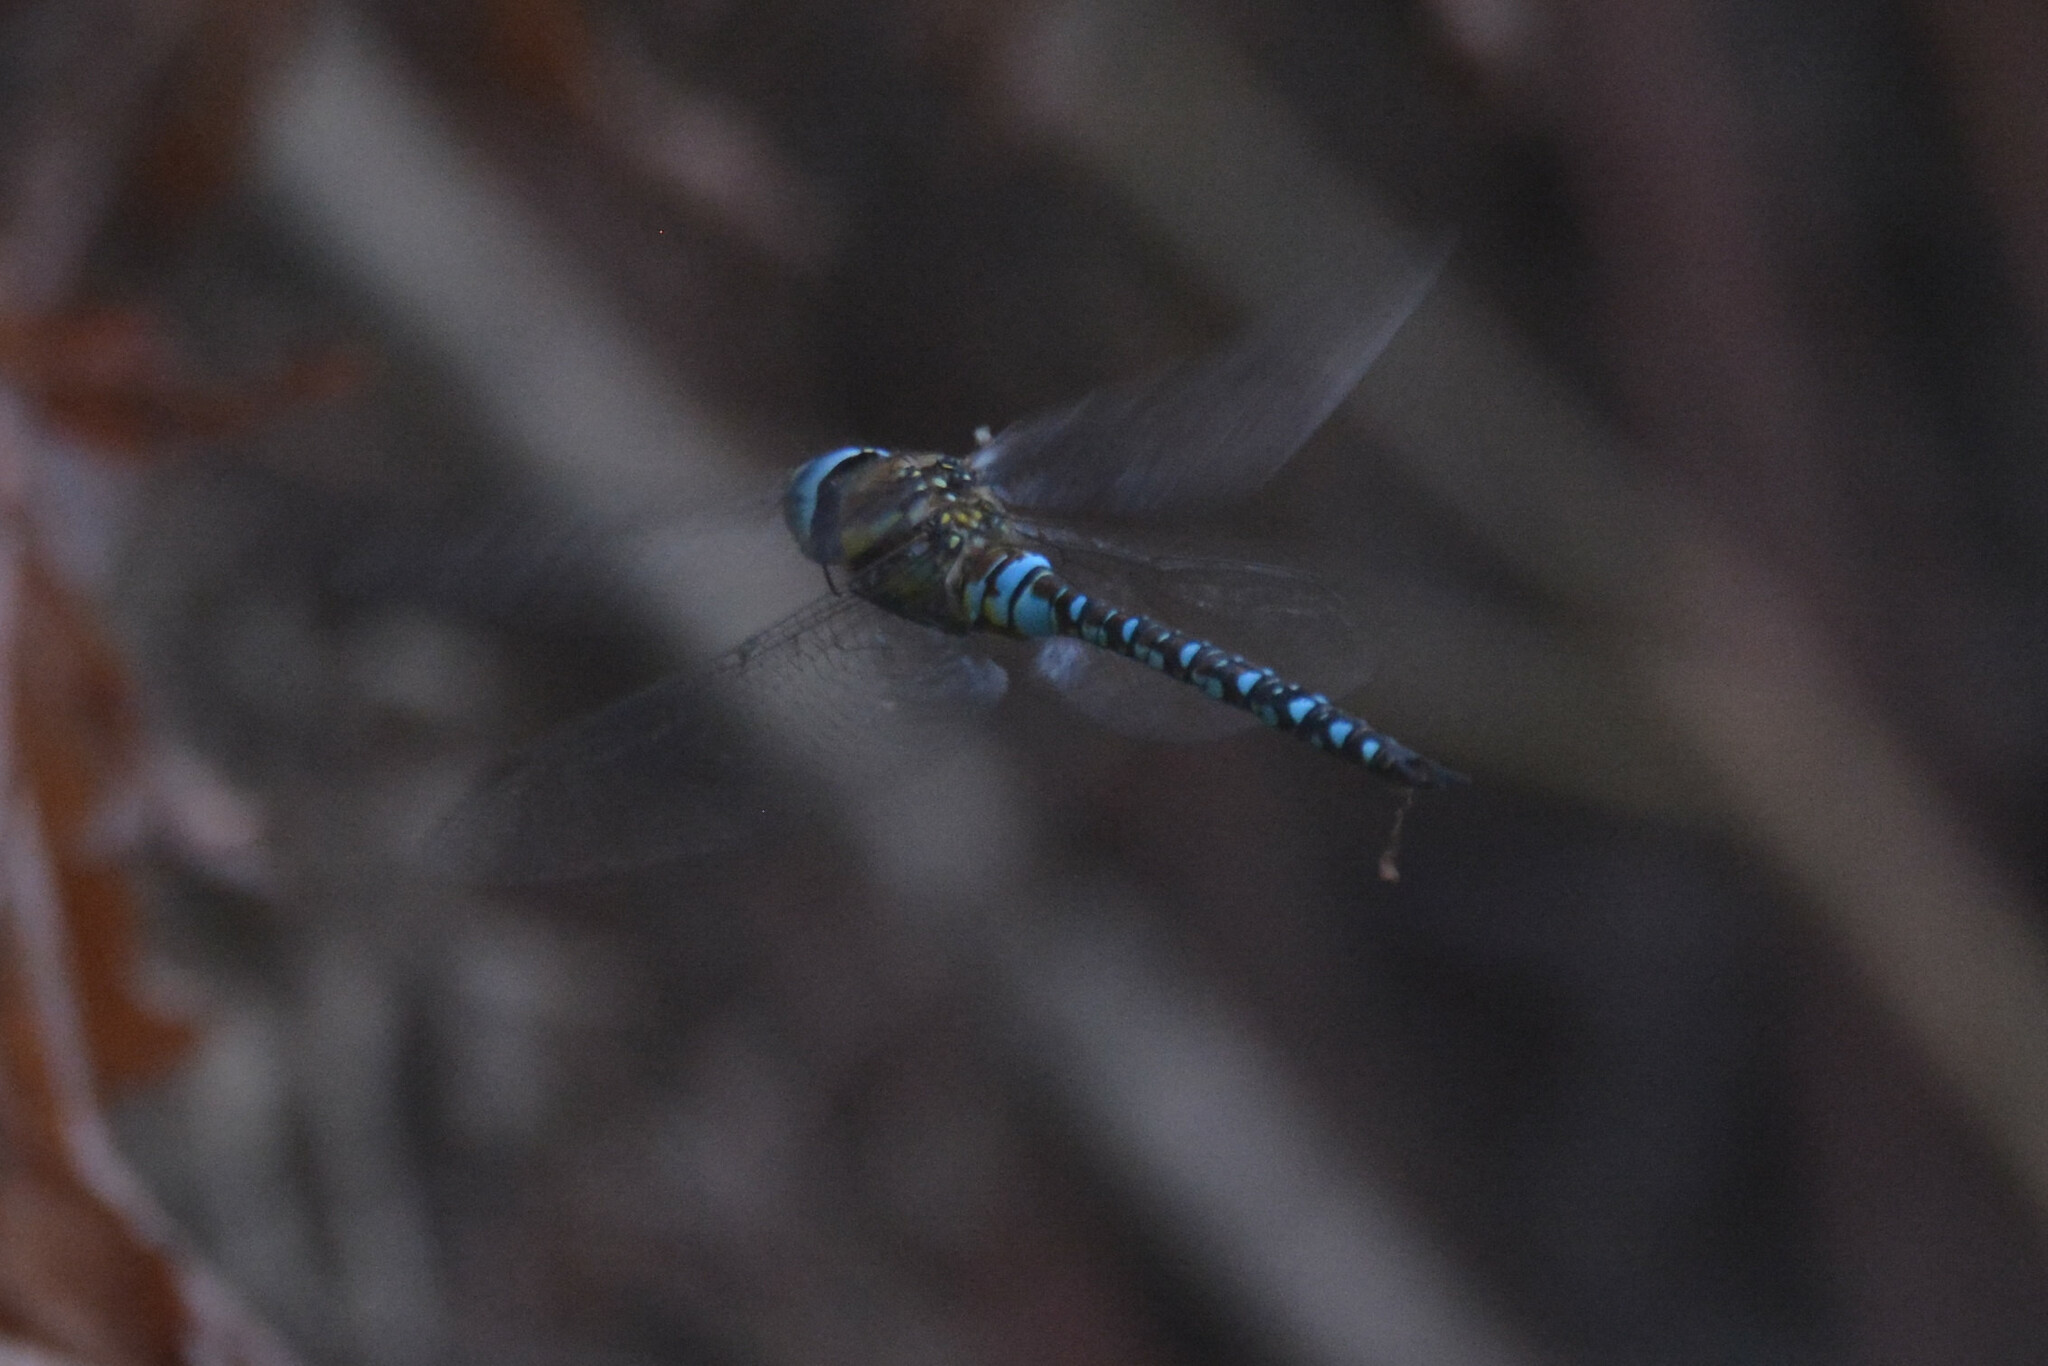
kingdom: Animalia
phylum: Arthropoda
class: Insecta
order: Odonata
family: Aeshnidae
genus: Aeshna
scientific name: Aeshna mixta
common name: Migrant hawker
